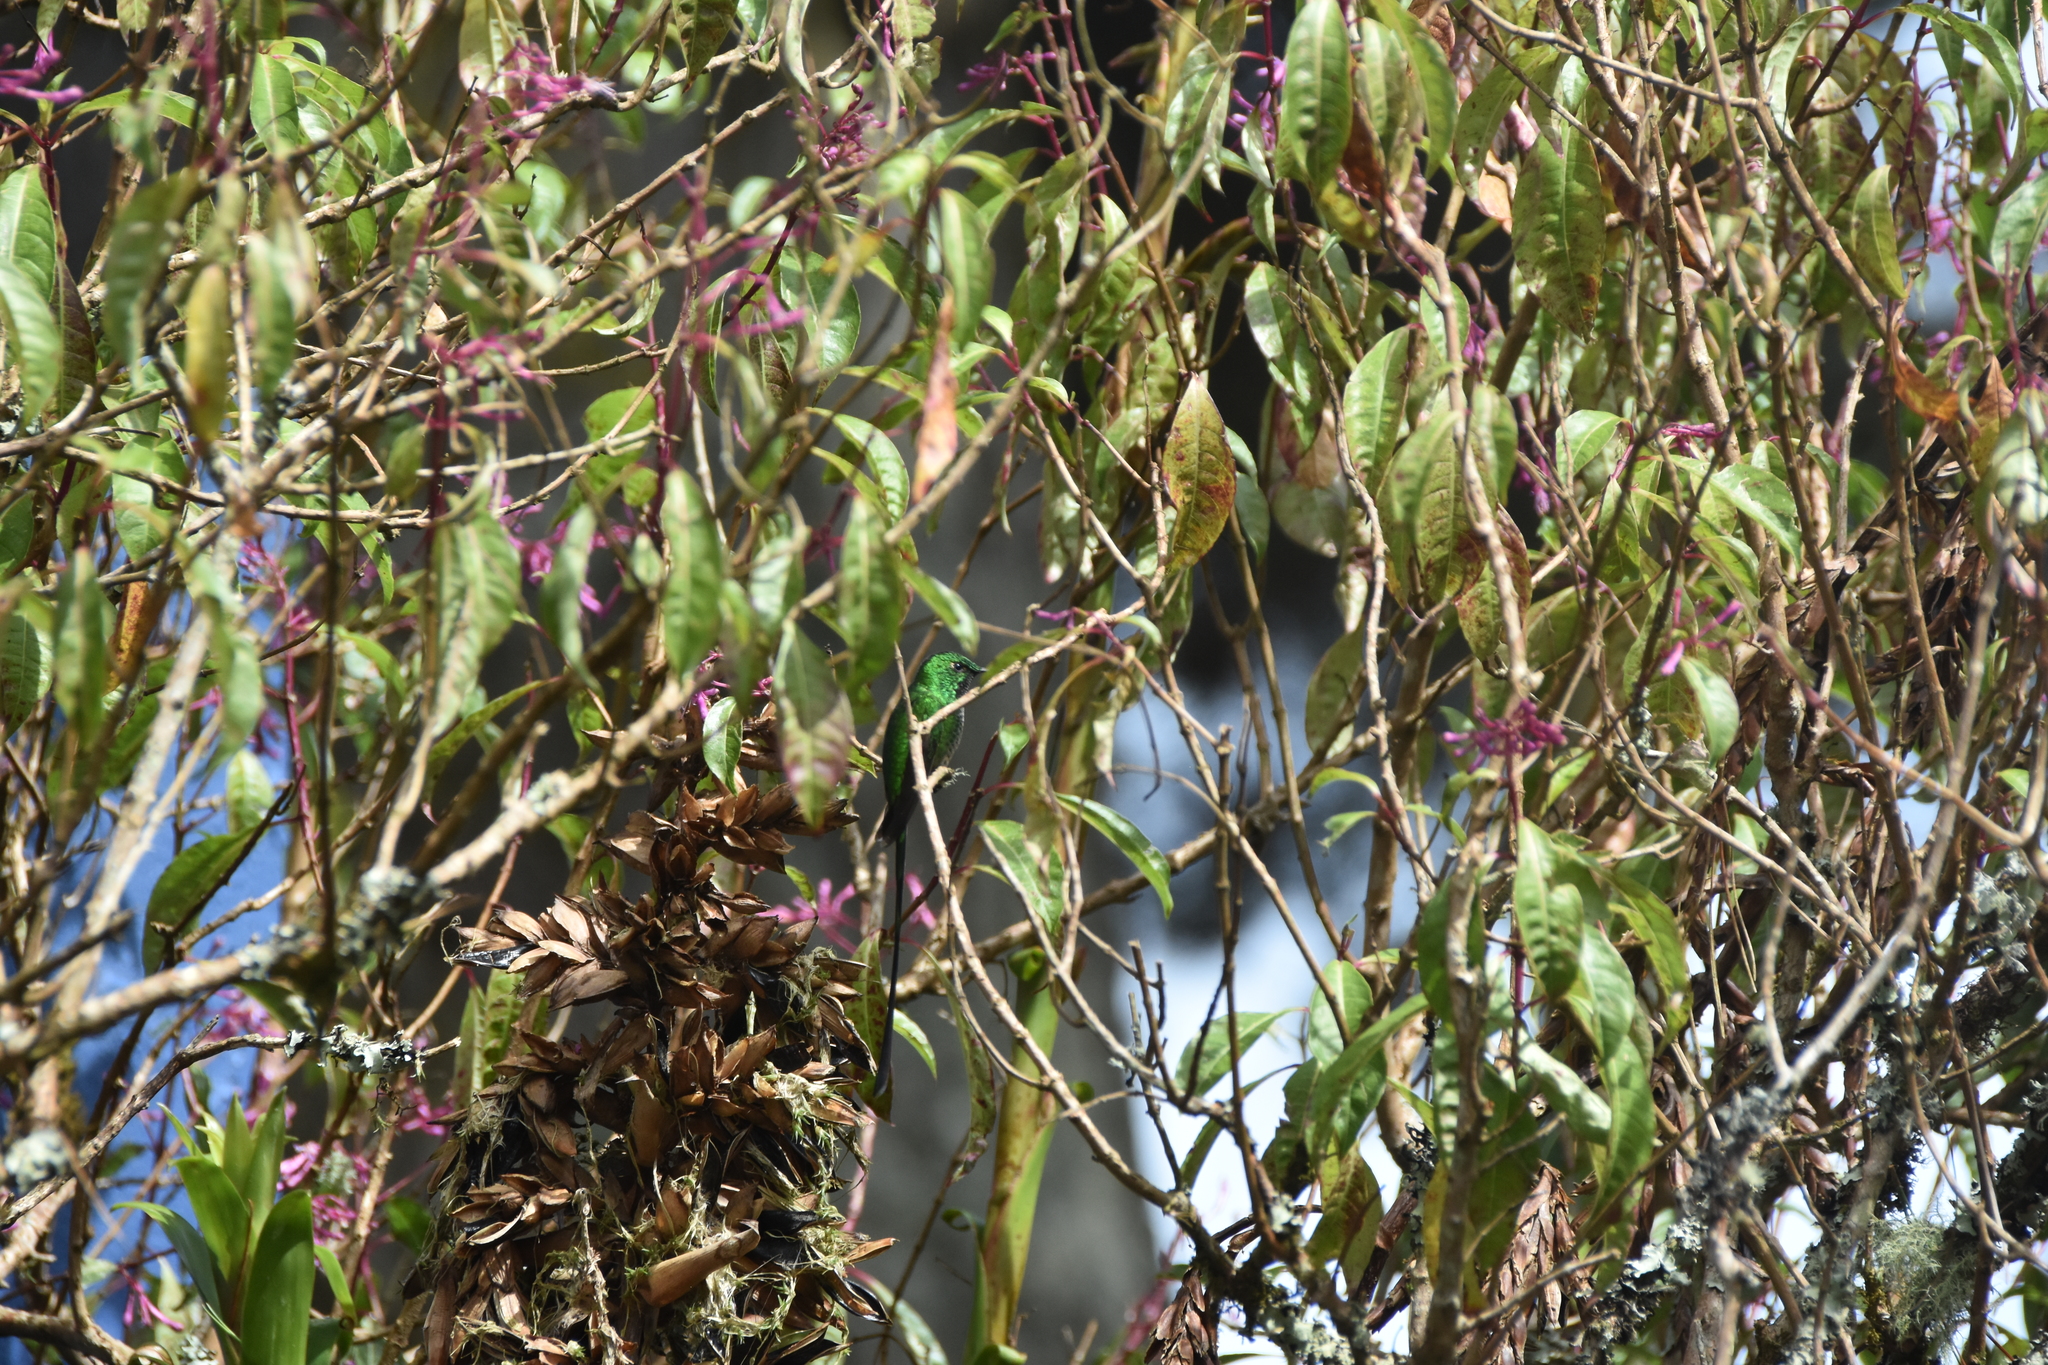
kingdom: Animalia
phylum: Chordata
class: Aves
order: Apodiformes
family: Trochilidae
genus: Lesbia
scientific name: Lesbia victoriae
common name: Black-tailed trainbearer
